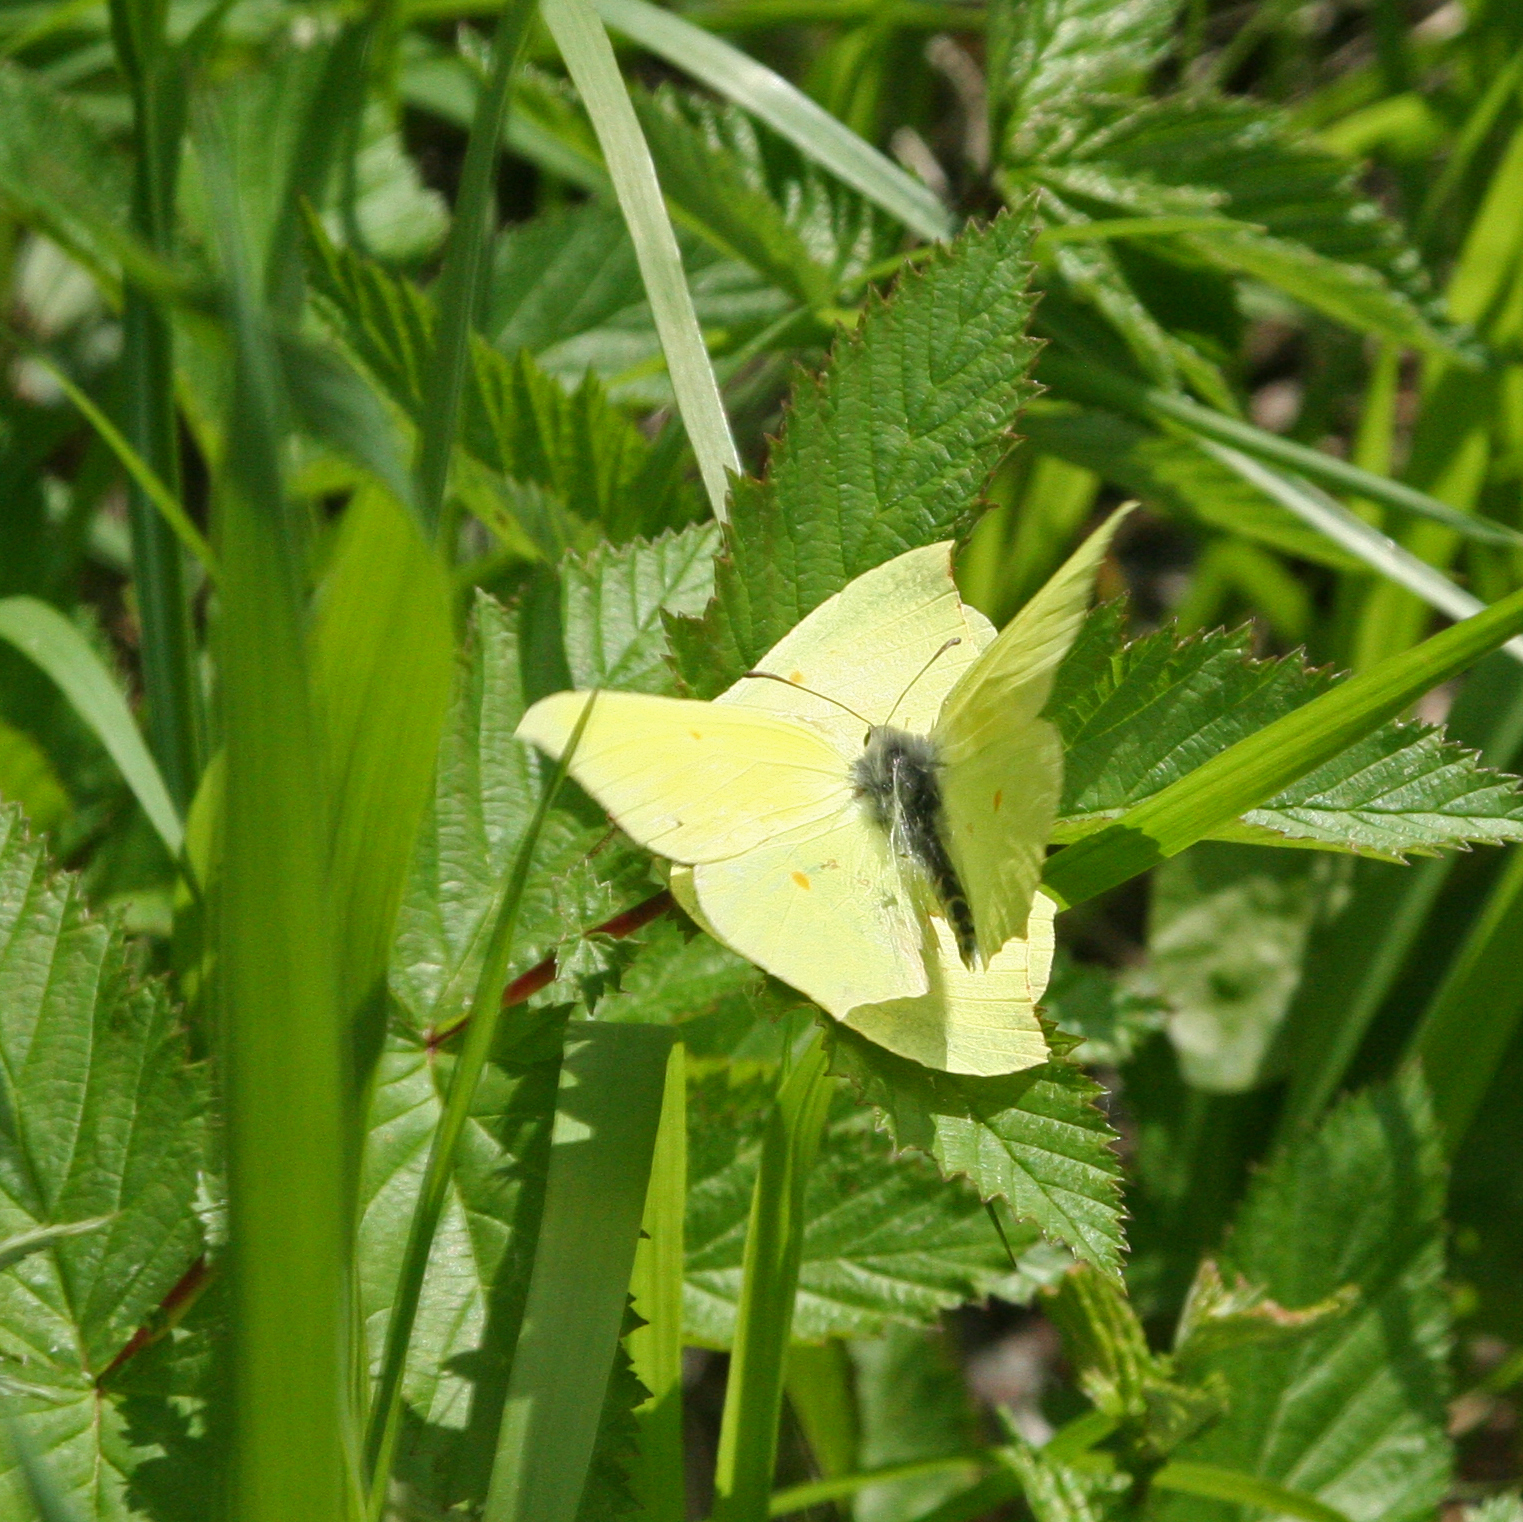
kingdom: Animalia
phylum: Arthropoda
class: Insecta
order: Lepidoptera
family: Pieridae
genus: Gonepteryx
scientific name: Gonepteryx rhamni
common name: Brimstone
